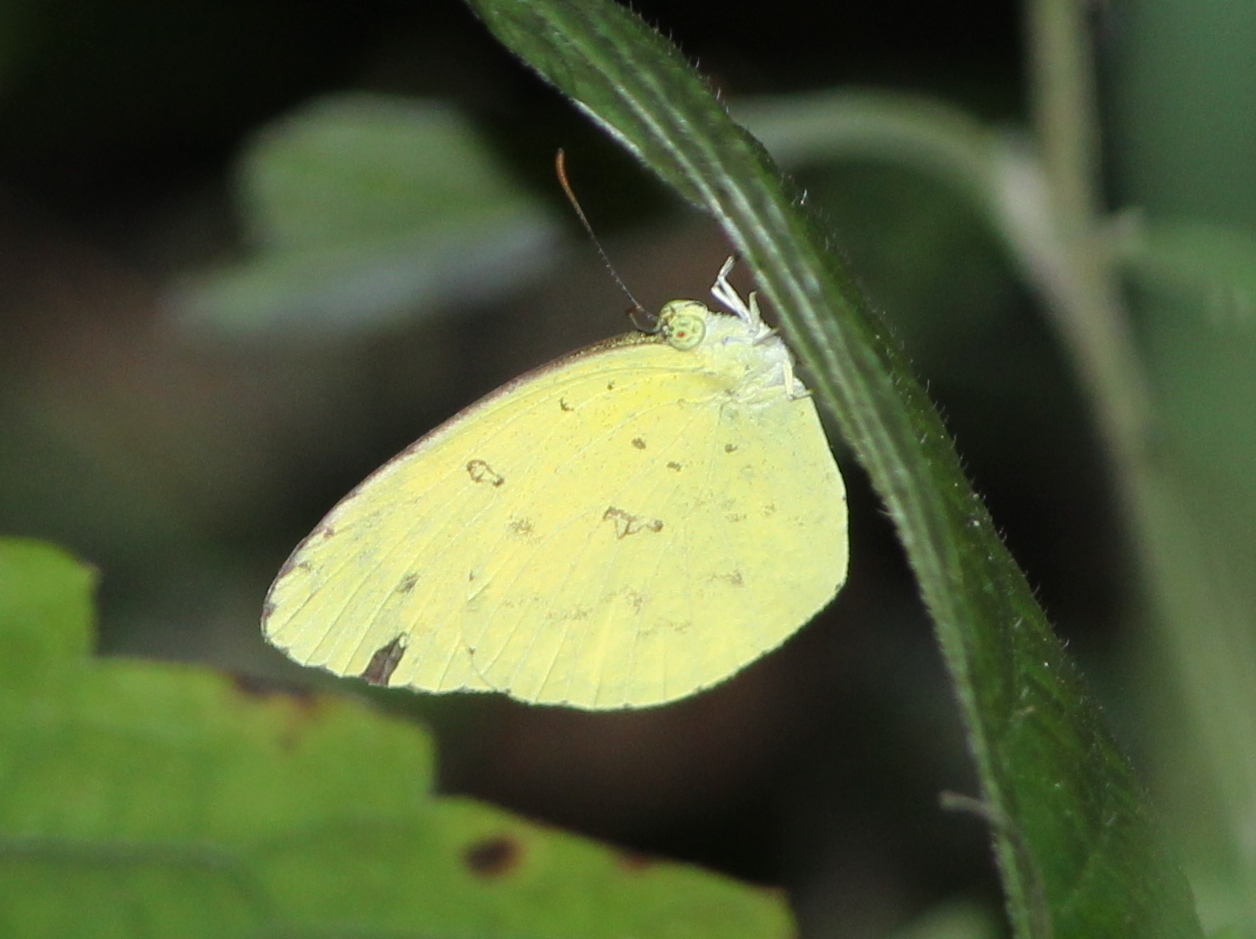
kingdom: Animalia
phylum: Arthropoda
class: Insecta
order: Lepidoptera
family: Pieridae
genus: Eurema
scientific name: Eurema hecabe
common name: Pale grass yellow
